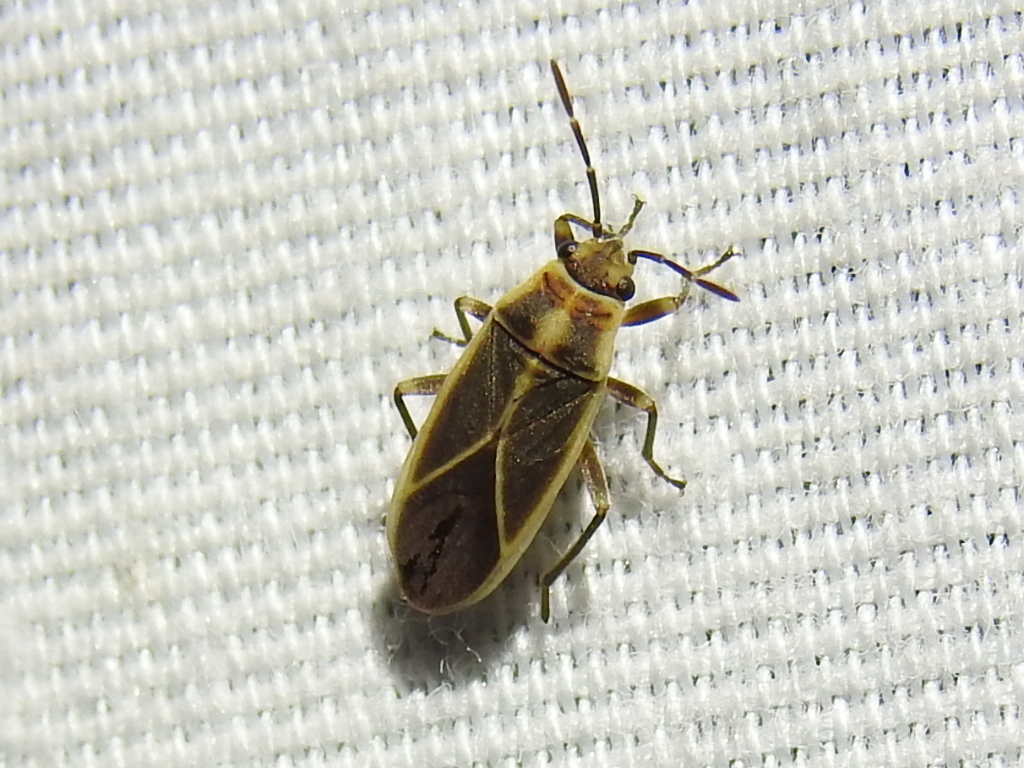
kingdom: Animalia
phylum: Arthropoda
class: Insecta
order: Hemiptera
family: Lygaeidae
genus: Ochrimnus
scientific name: Ochrimnus mimulus
